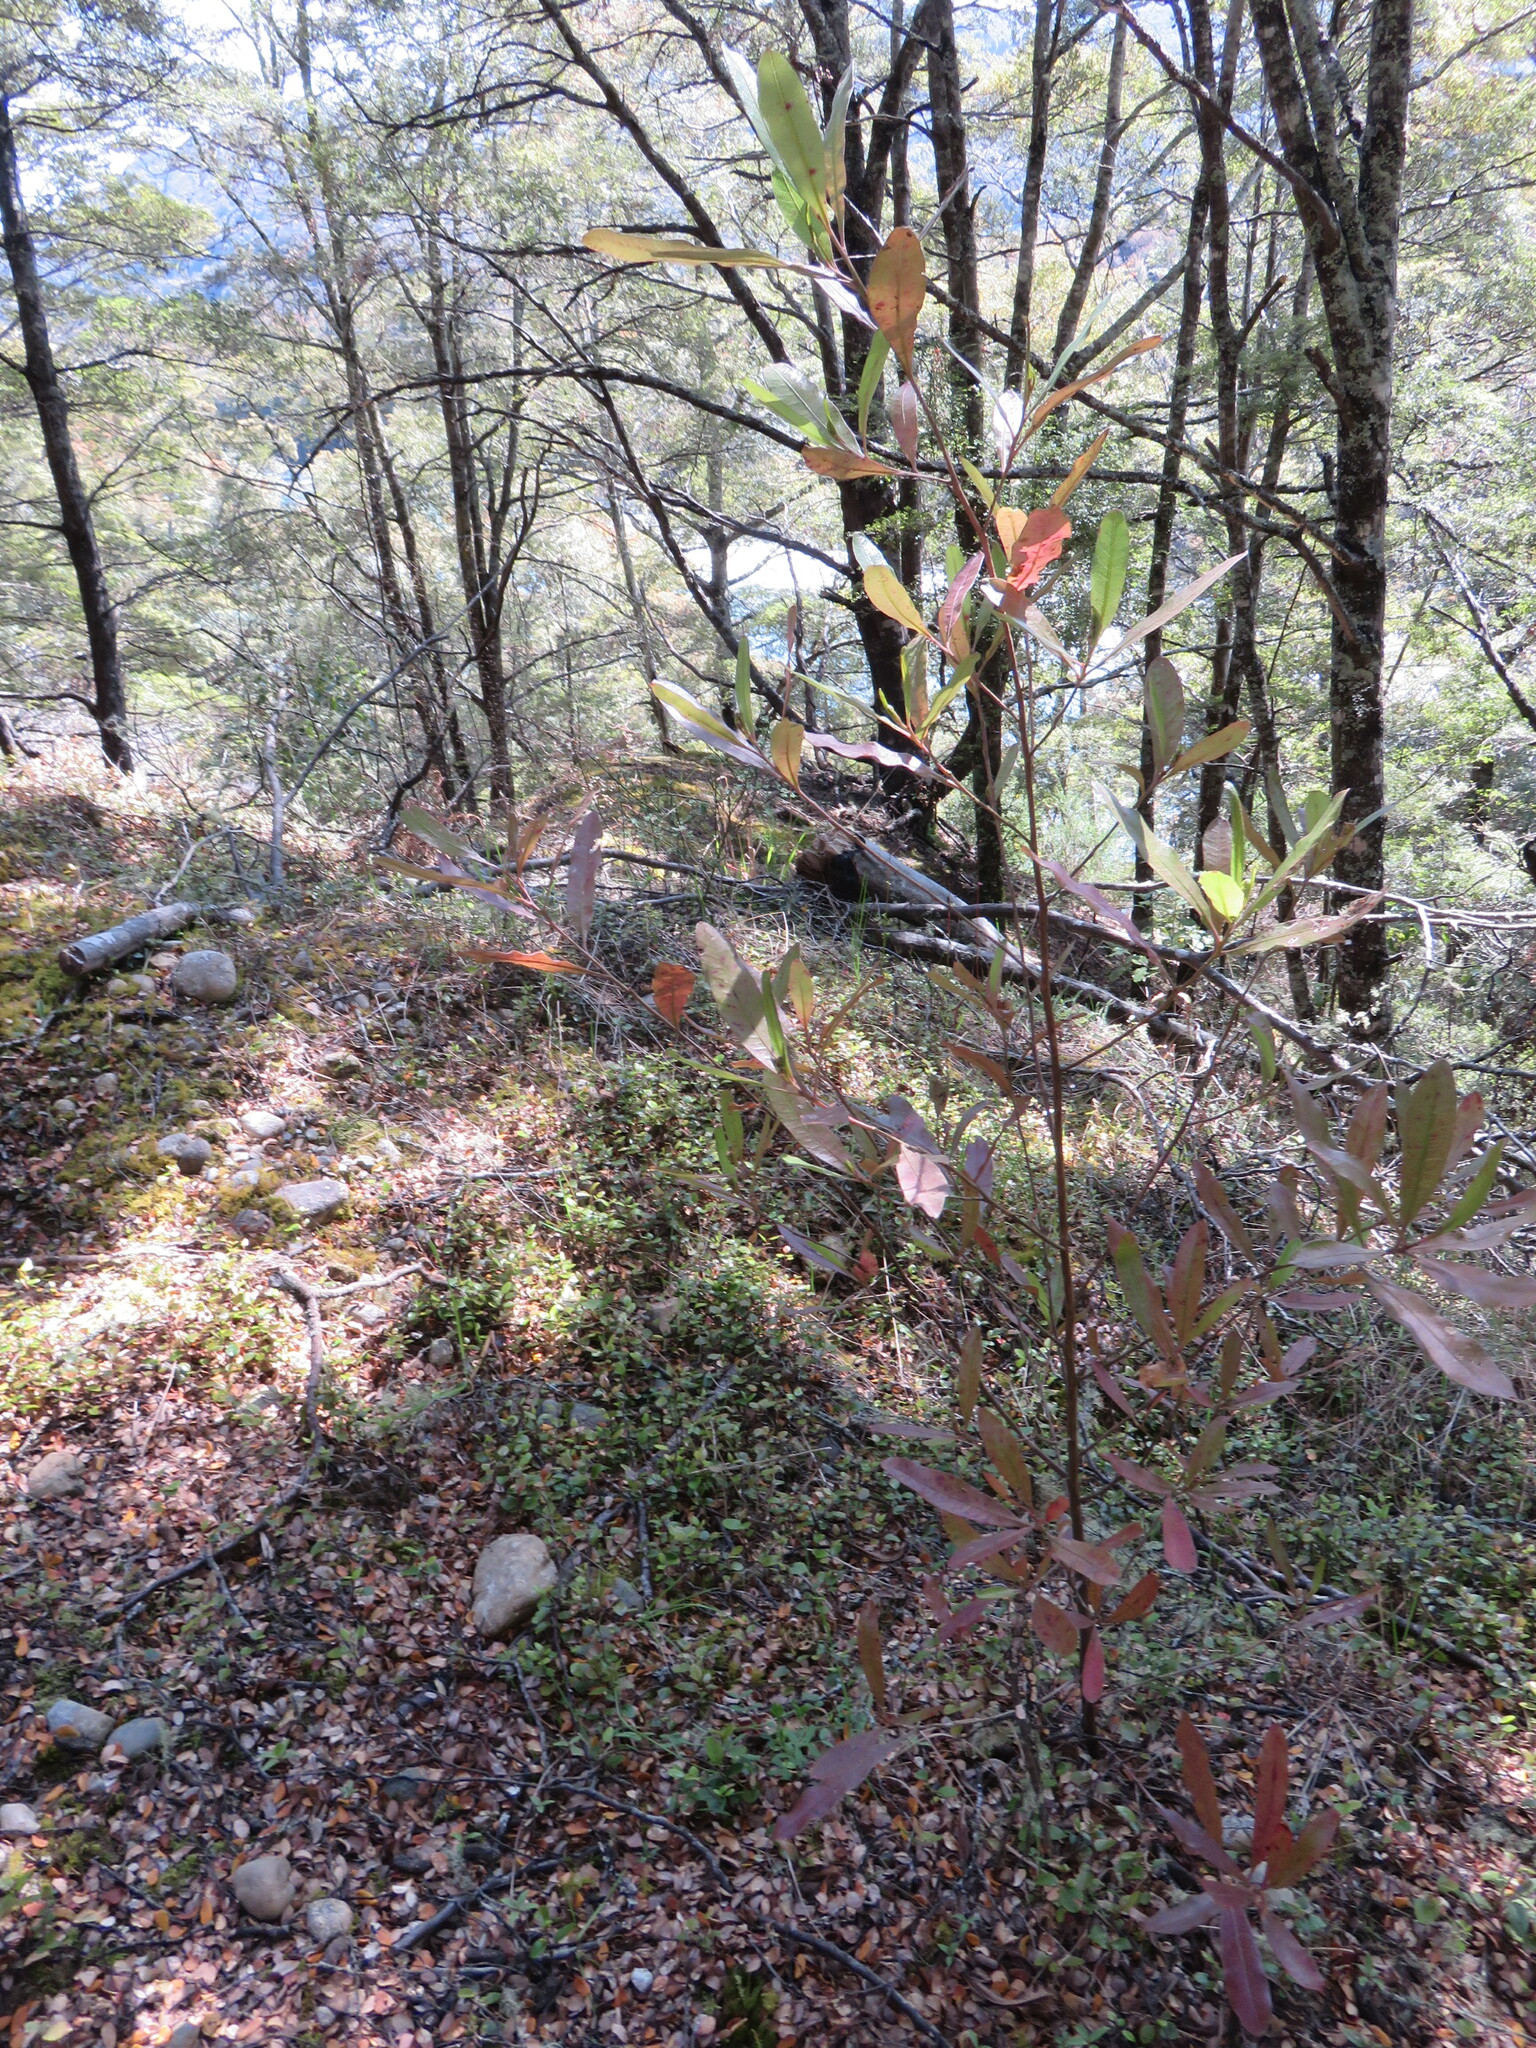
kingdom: Plantae
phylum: Tracheophyta
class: Magnoliopsida
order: Sapindales
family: Sapindaceae
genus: Dodonaea
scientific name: Dodonaea viscosa
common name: Hopbush
